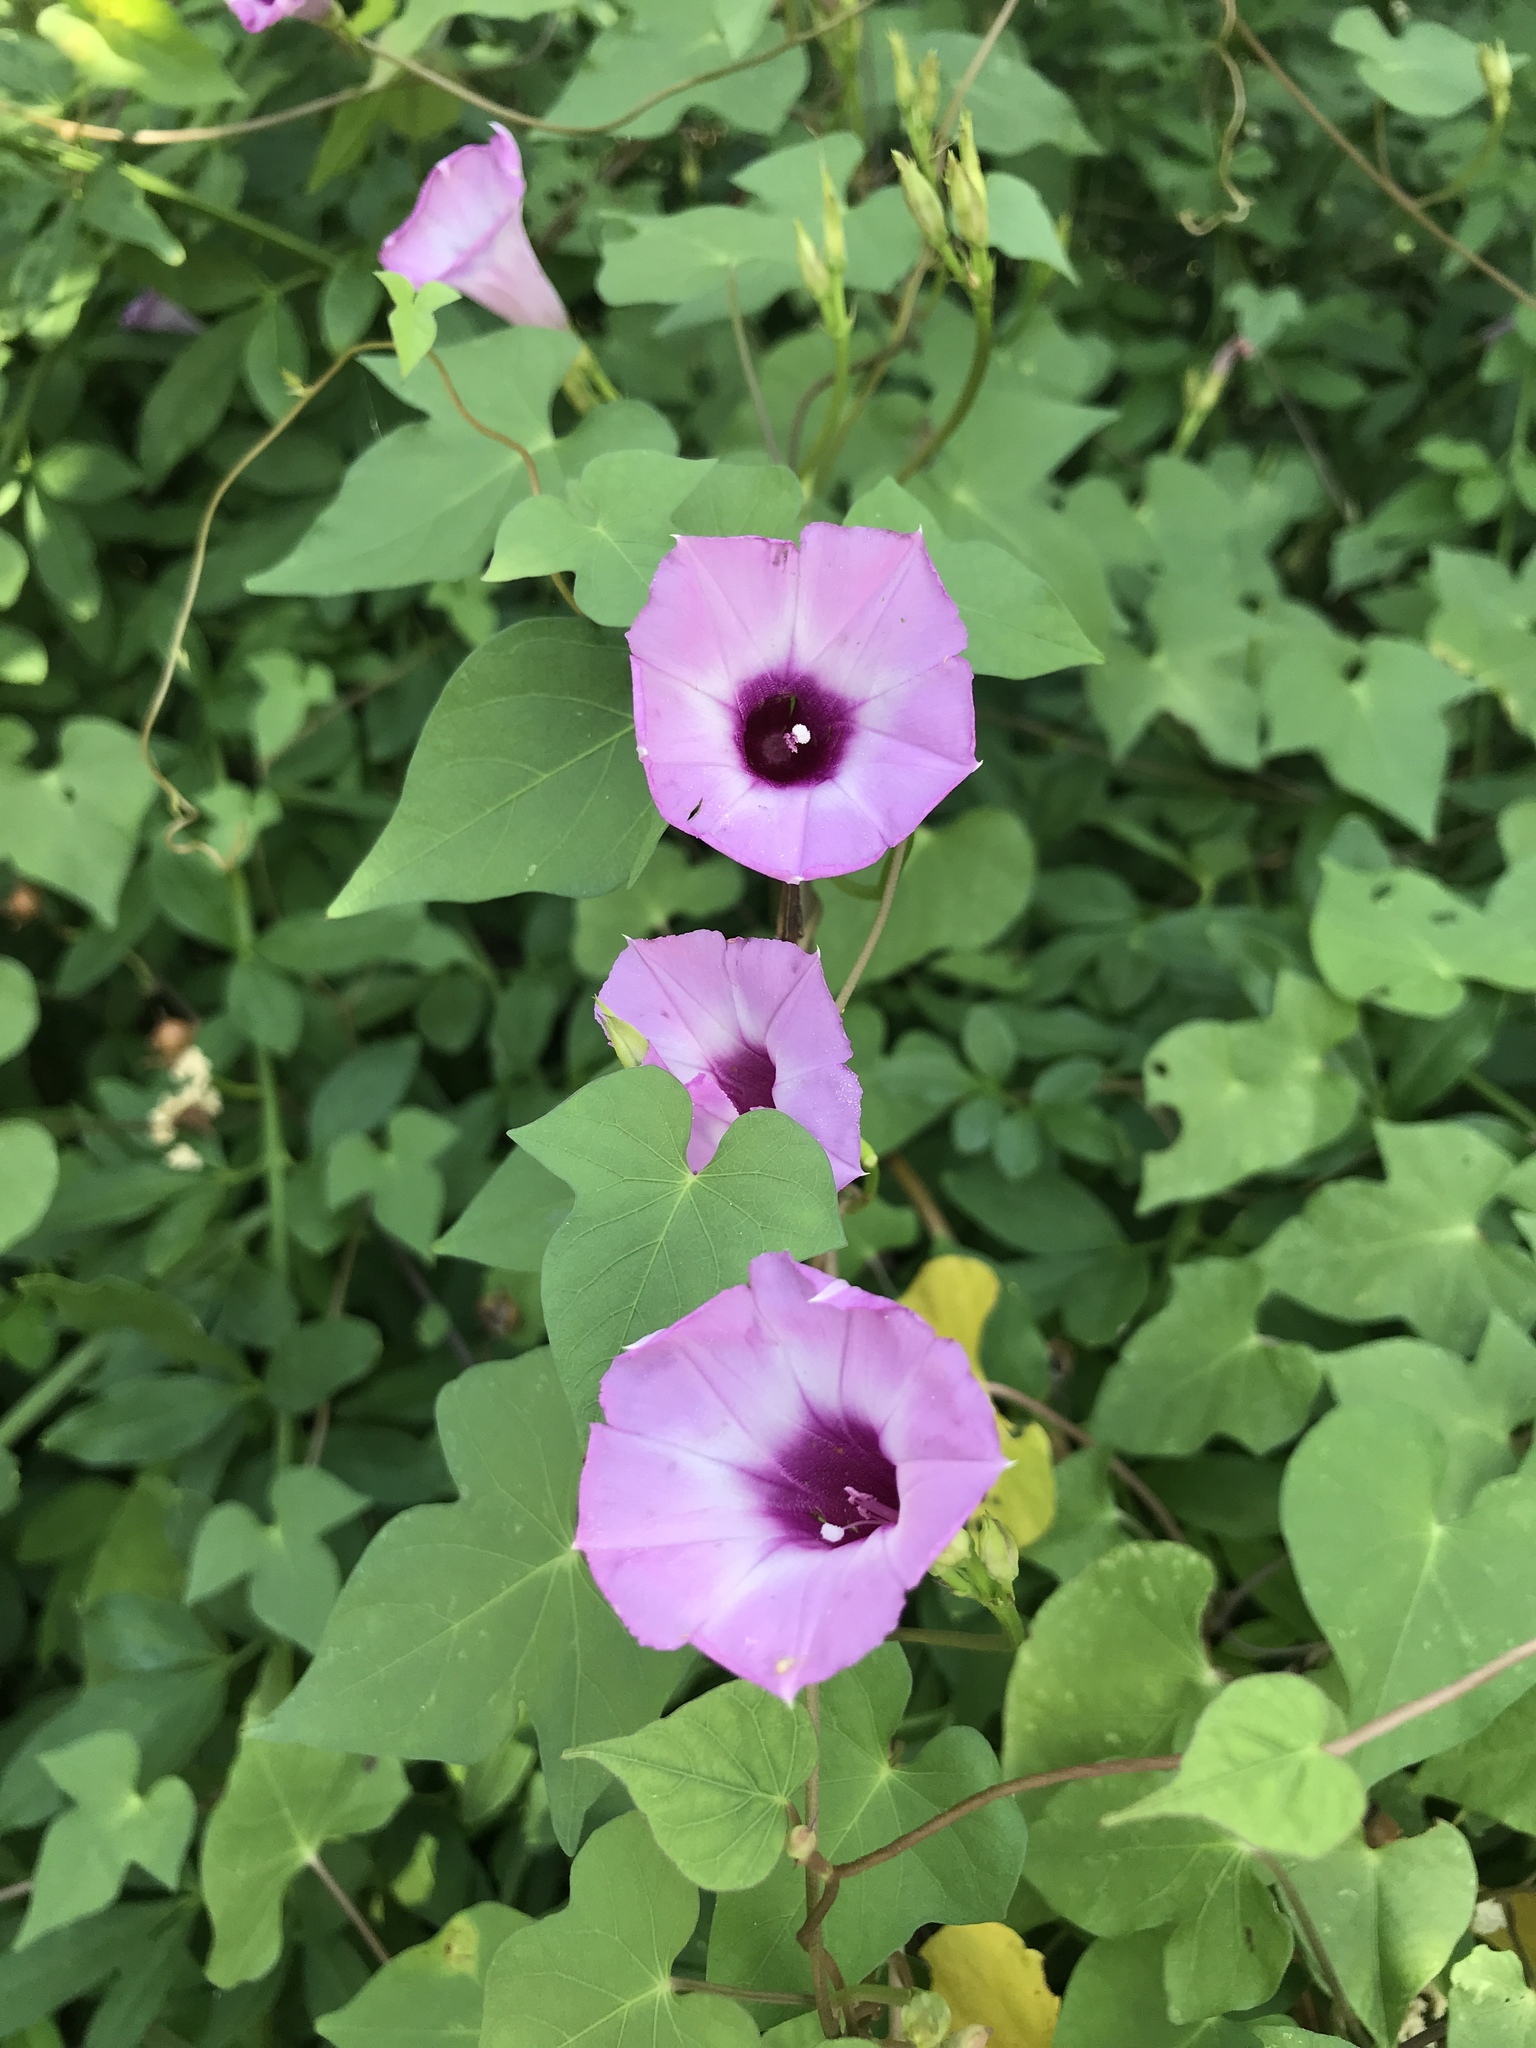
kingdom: Plantae
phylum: Tracheophyta
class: Magnoliopsida
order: Solanales
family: Convolvulaceae
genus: Ipomoea
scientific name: Ipomoea cordatotriloba
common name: Cotton morning glory
